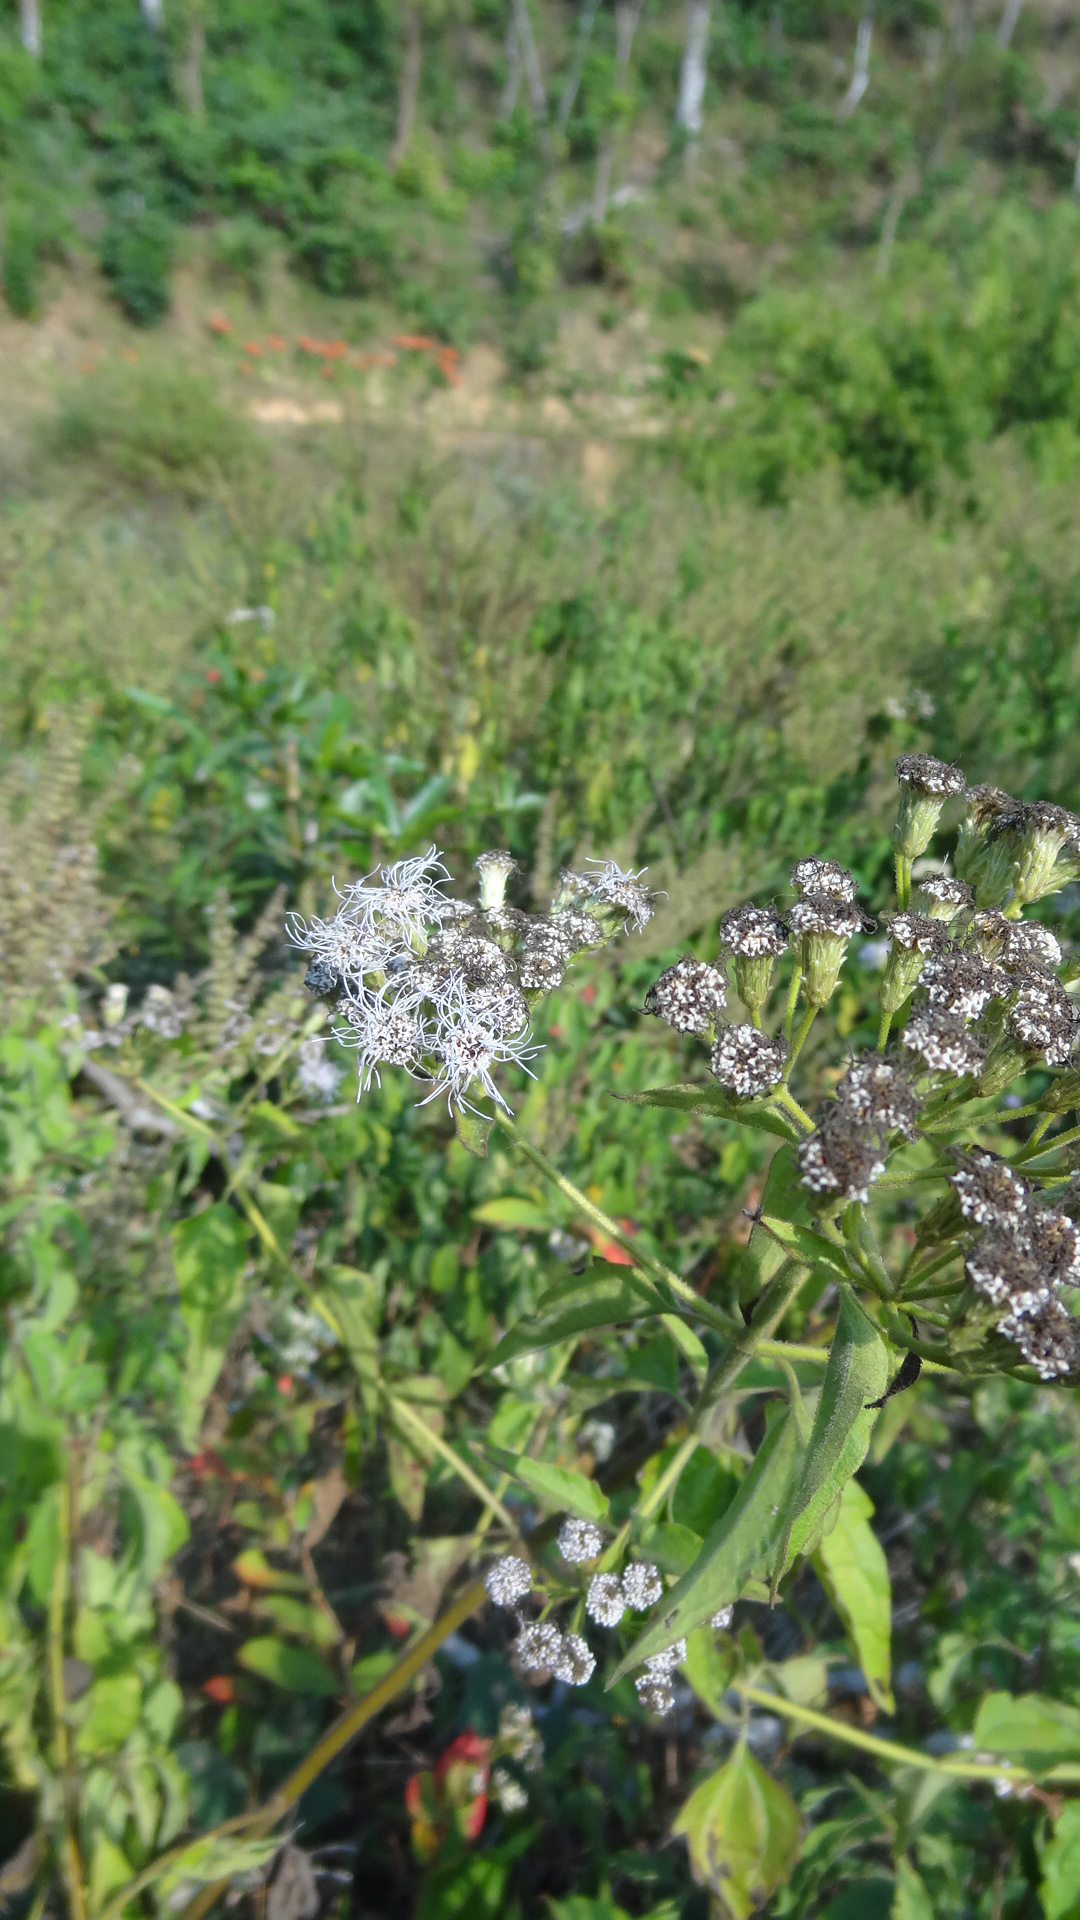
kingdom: Plantae
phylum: Tracheophyta
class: Magnoliopsida
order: Asterales
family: Asteraceae
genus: Chromolaena
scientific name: Chromolaena odorata
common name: Siamweed
